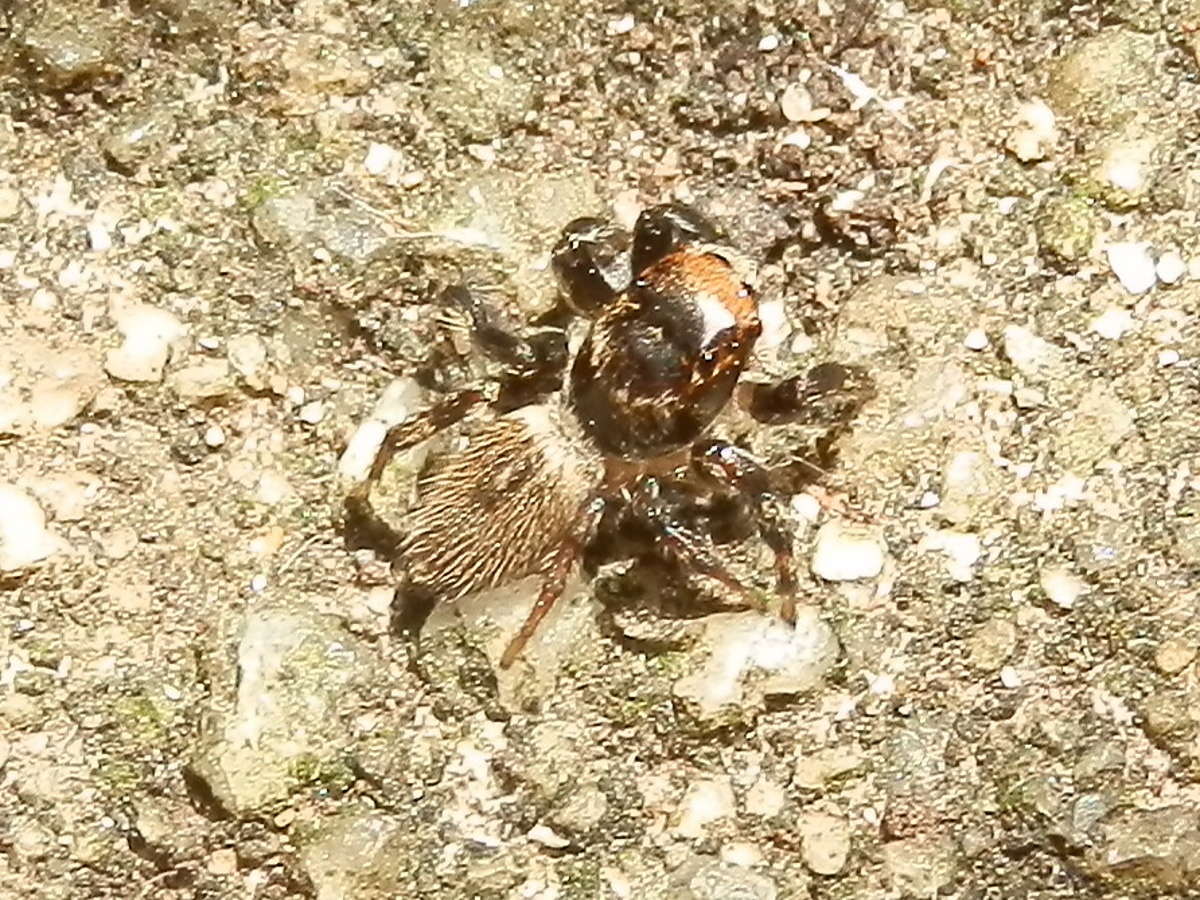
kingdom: Animalia
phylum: Arthropoda
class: Arachnida
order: Araneae
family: Salticidae
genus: Maratus
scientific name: Maratus griseus
